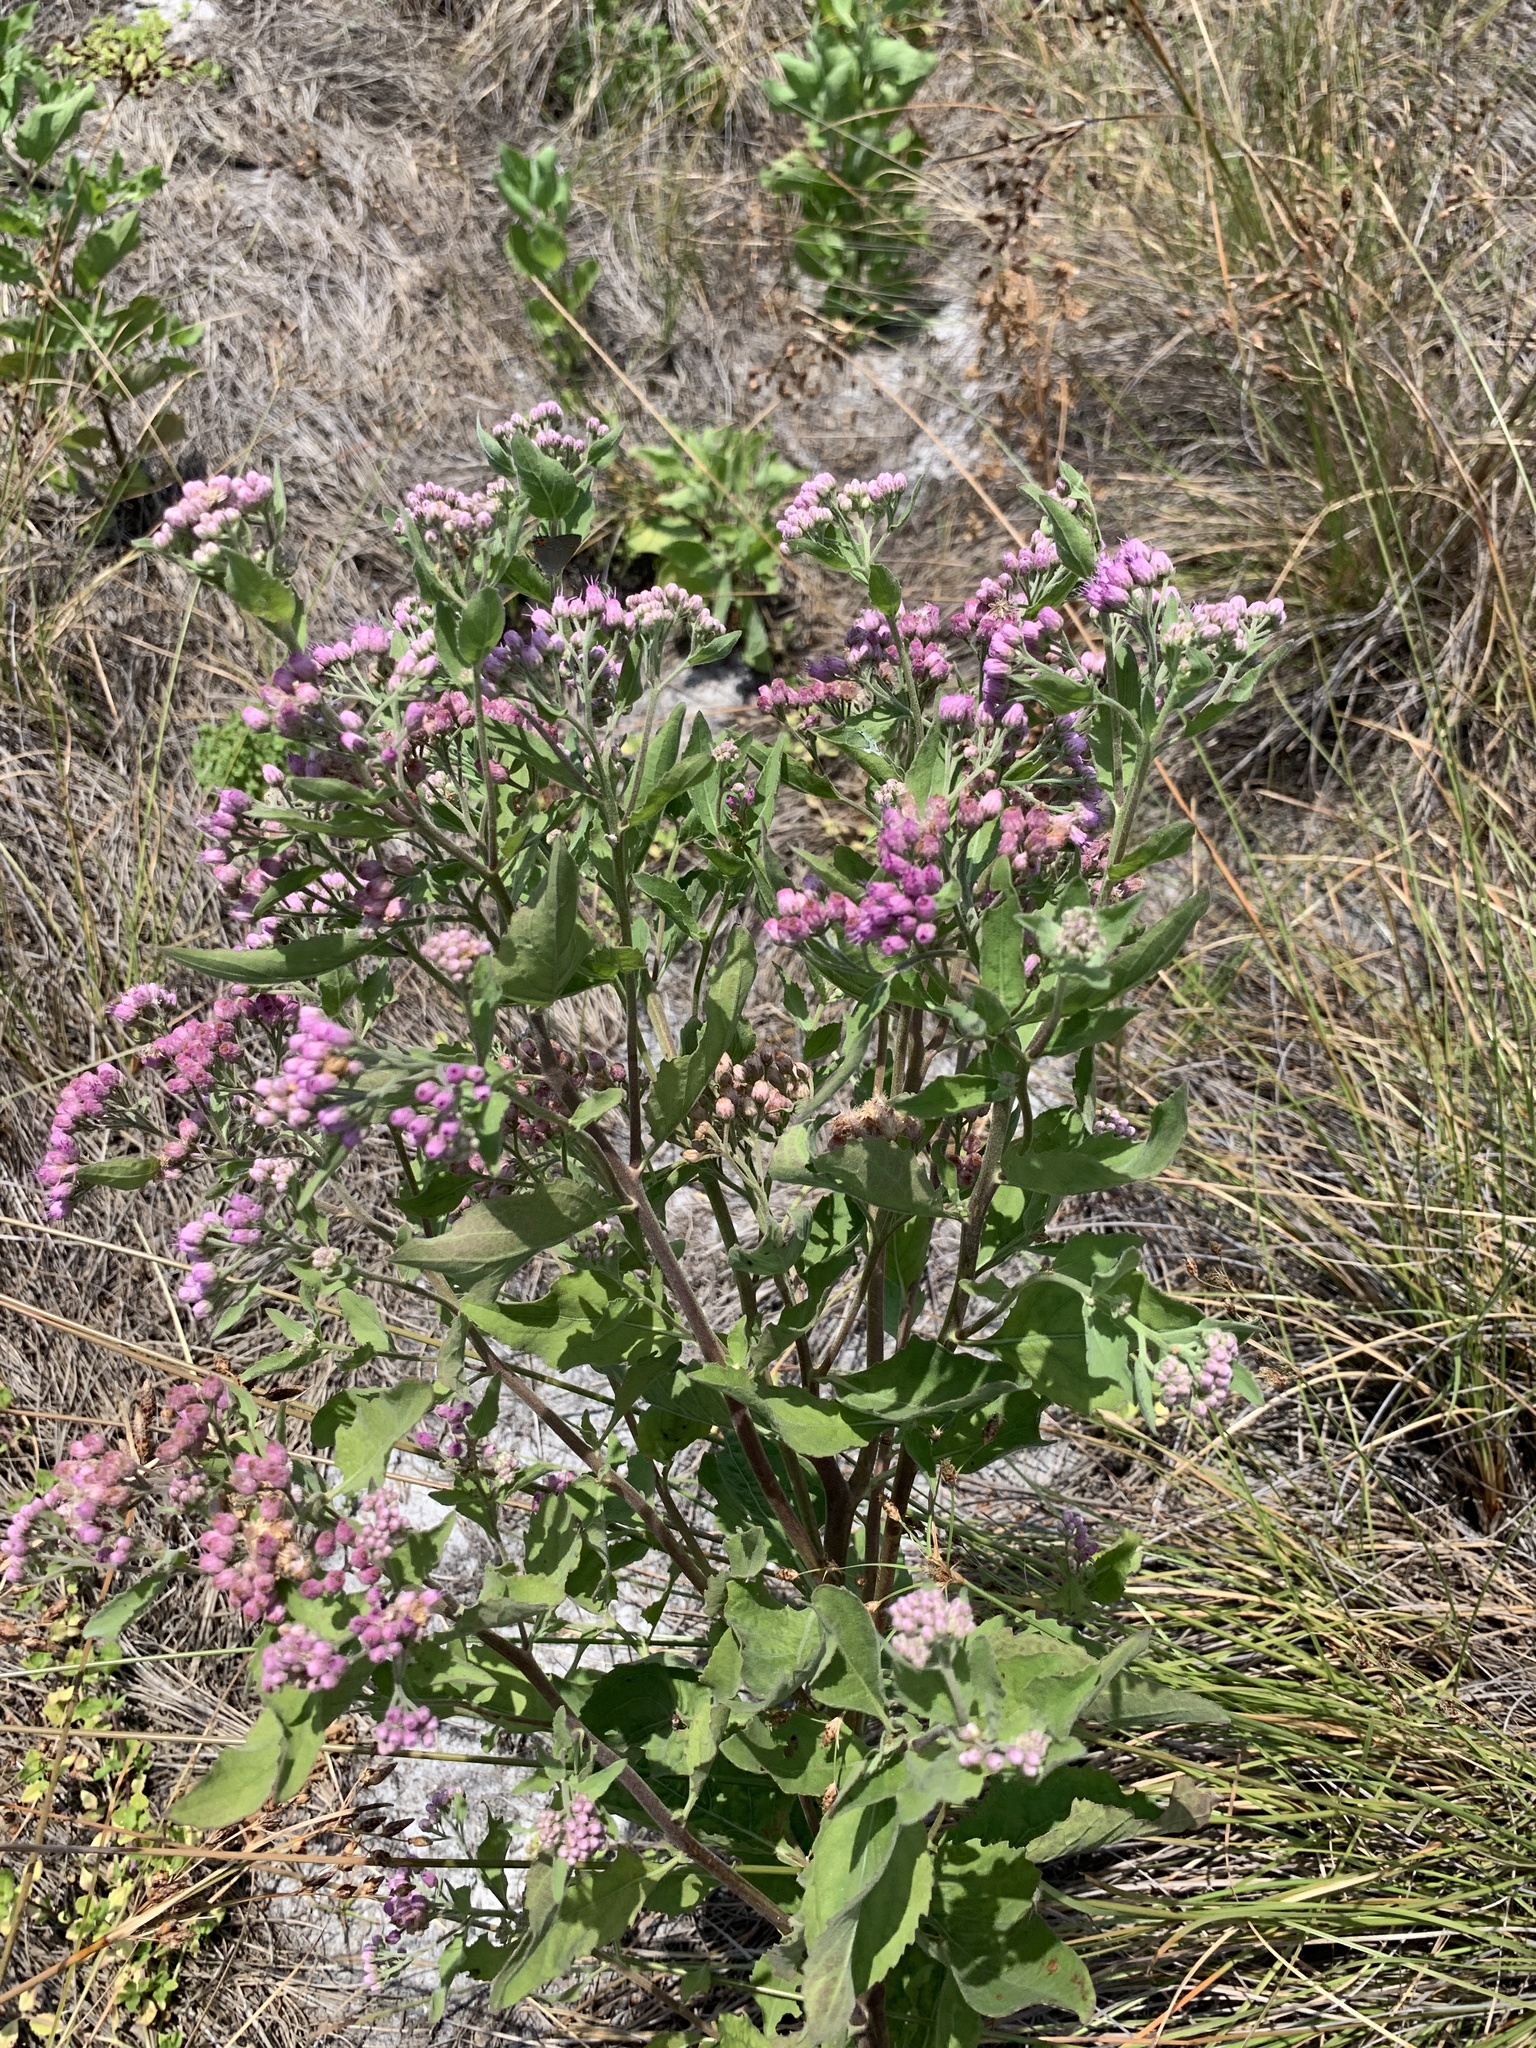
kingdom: Plantae
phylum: Tracheophyta
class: Magnoliopsida
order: Asterales
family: Asteraceae
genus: Pluchea
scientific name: Pluchea odorata
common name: Saltmarsh fleabane
